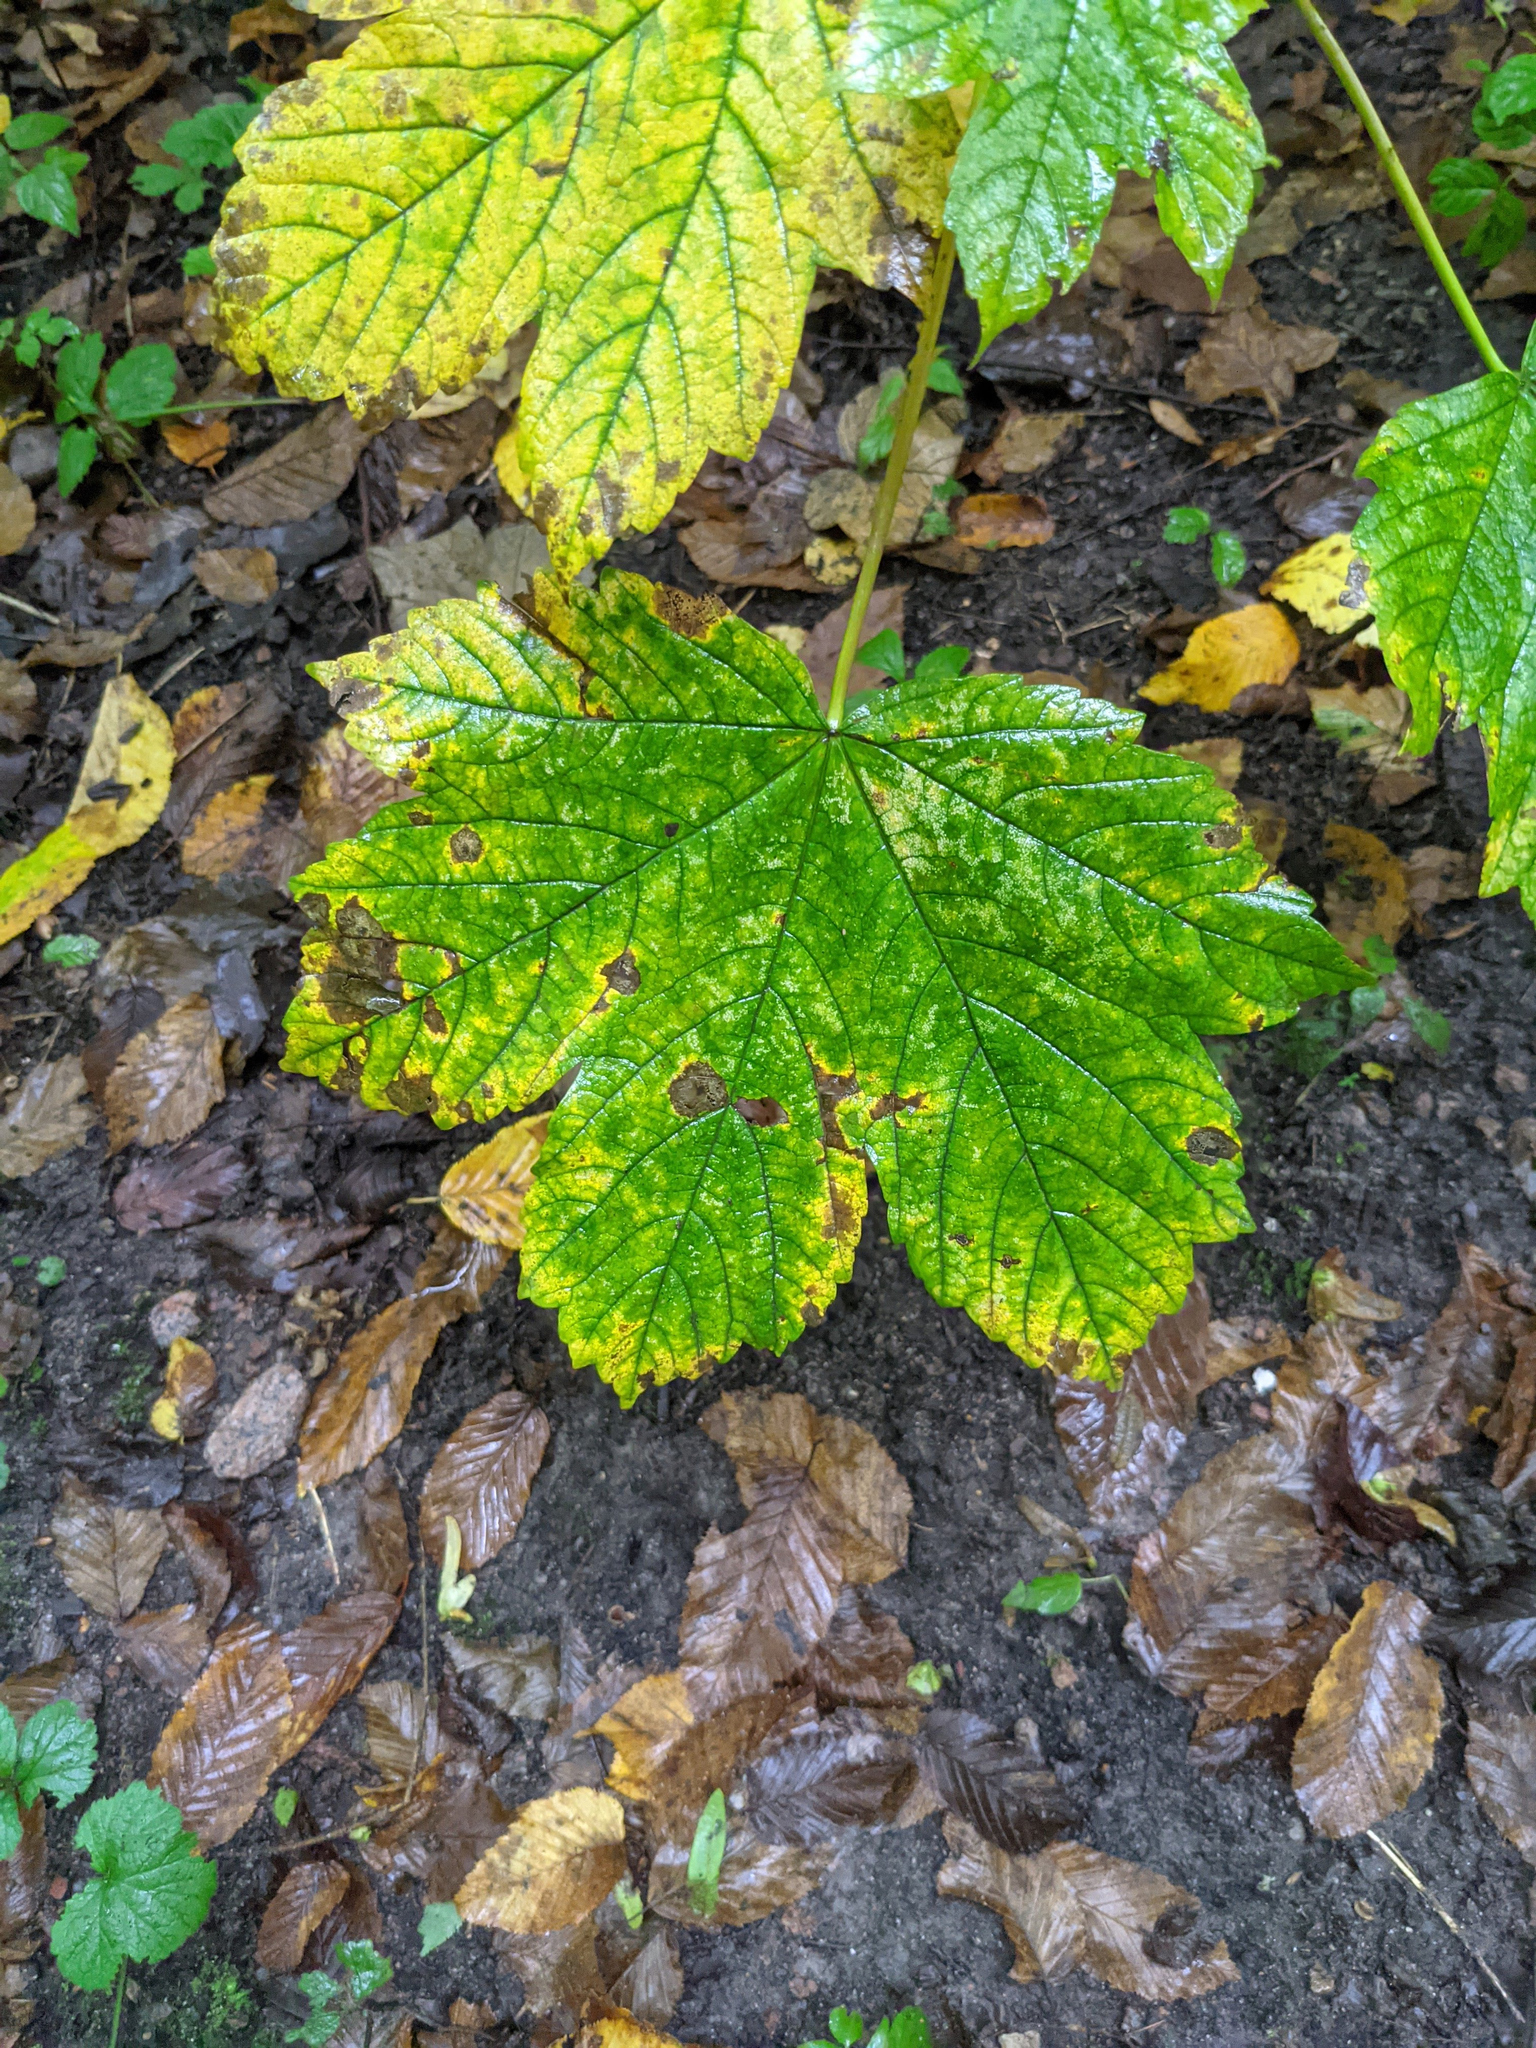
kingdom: Plantae
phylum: Tracheophyta
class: Magnoliopsida
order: Sapindales
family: Sapindaceae
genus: Acer
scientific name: Acer pseudoplatanus
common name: Sycamore
